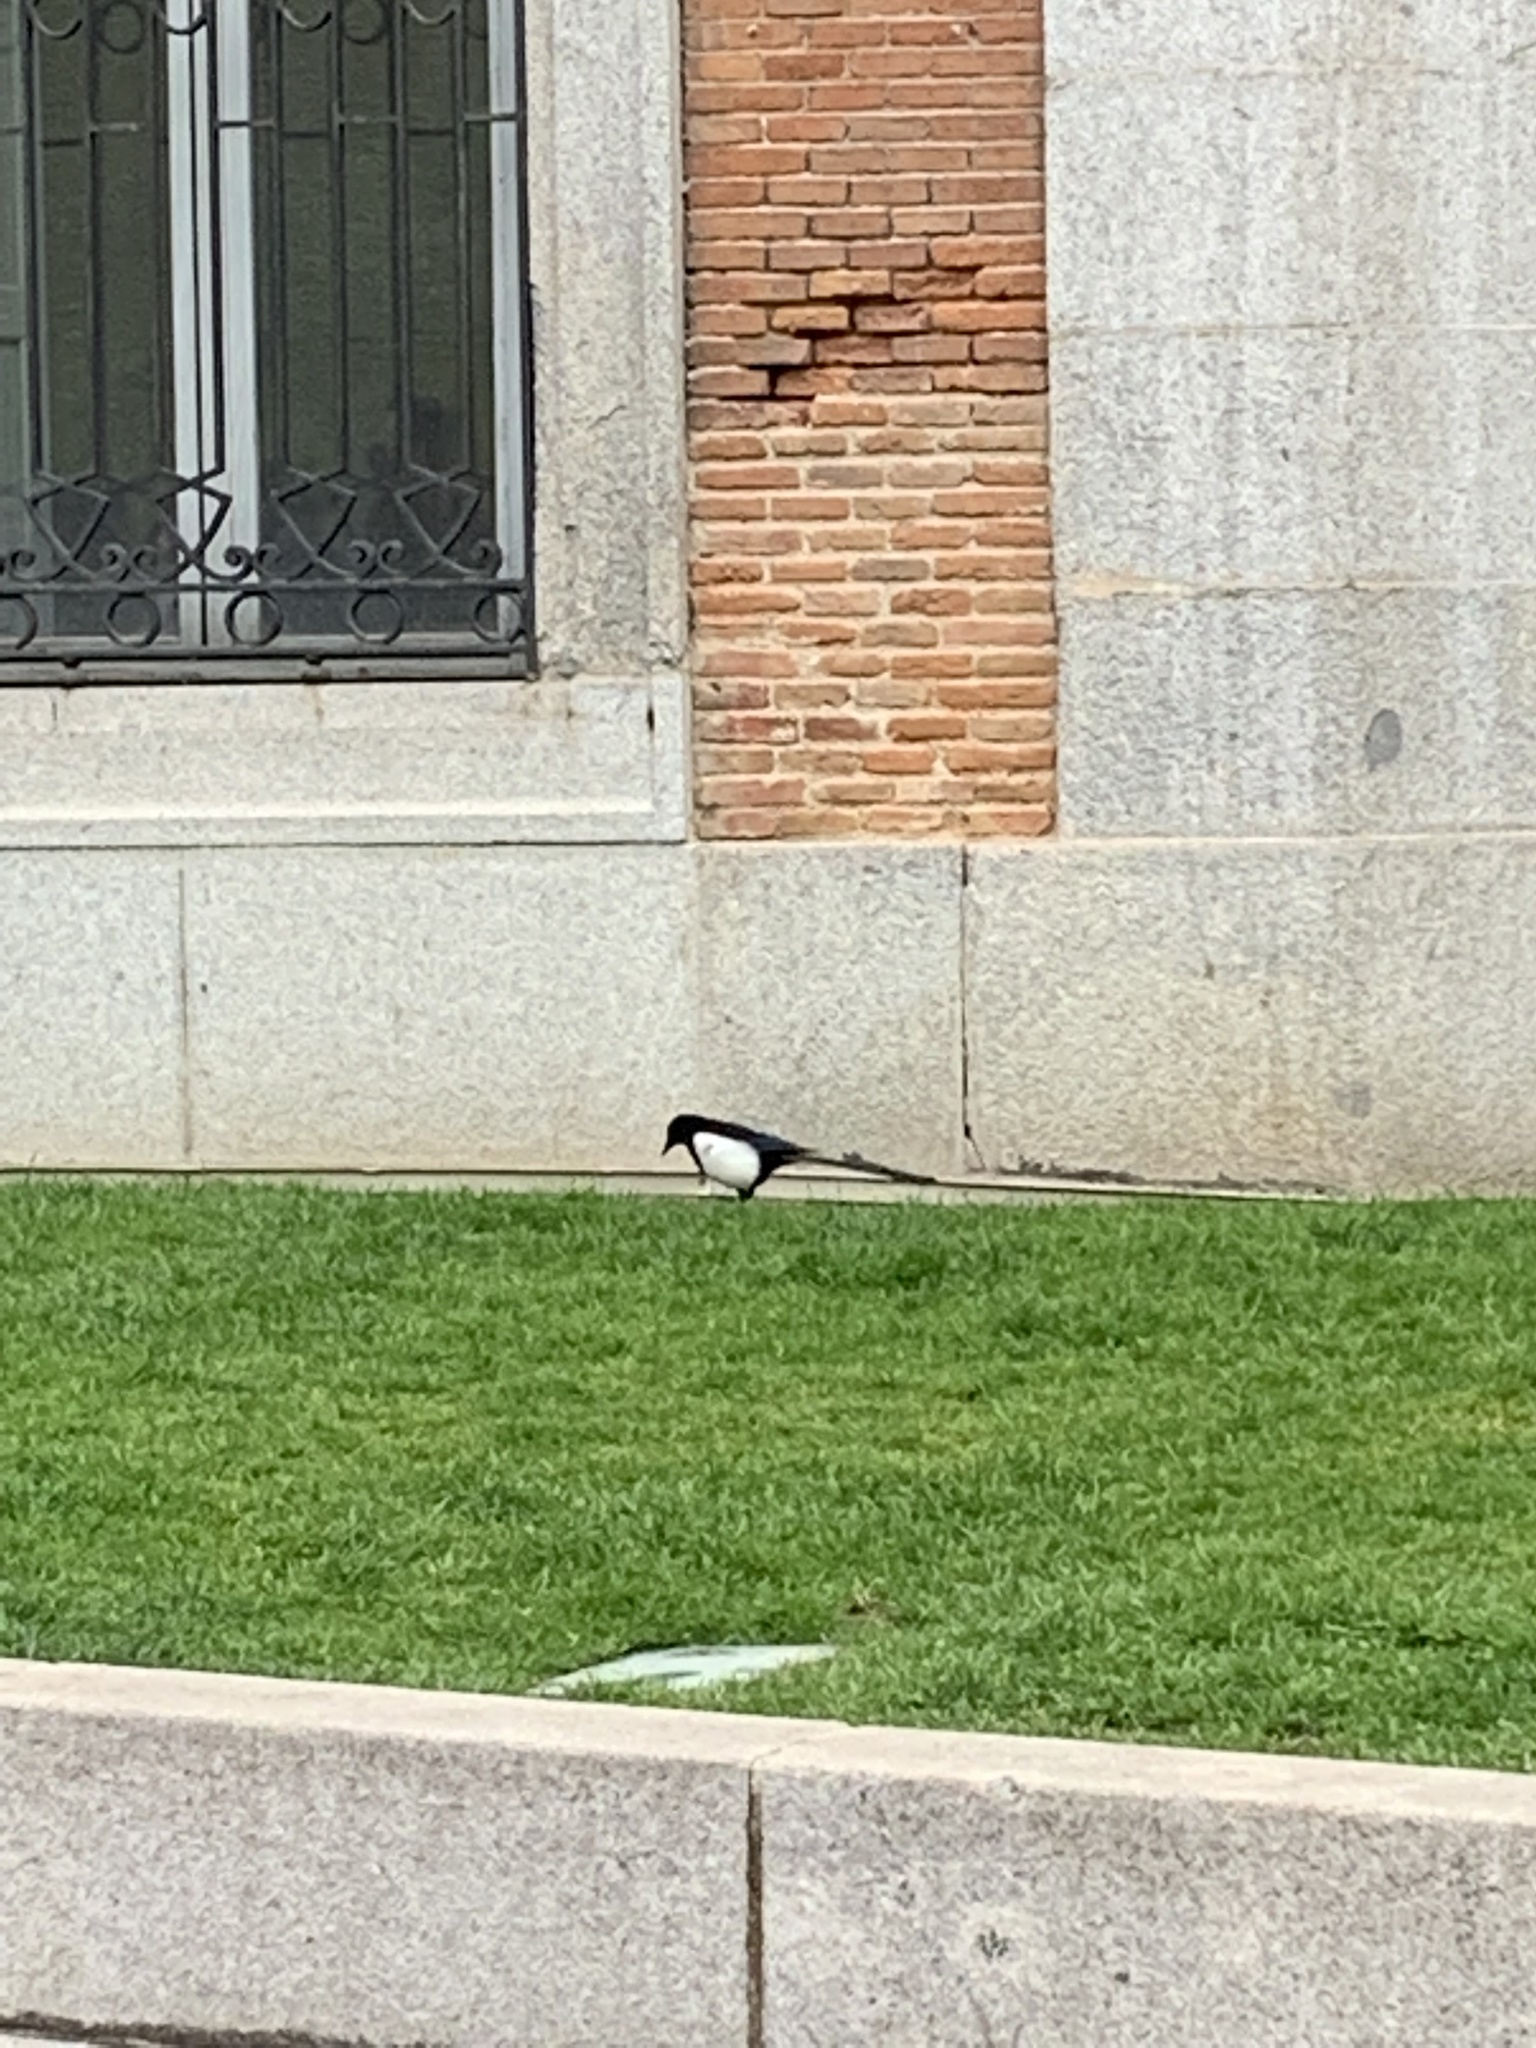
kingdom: Animalia
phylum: Chordata
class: Aves
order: Passeriformes
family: Corvidae
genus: Pica
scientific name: Pica pica
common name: Eurasian magpie
